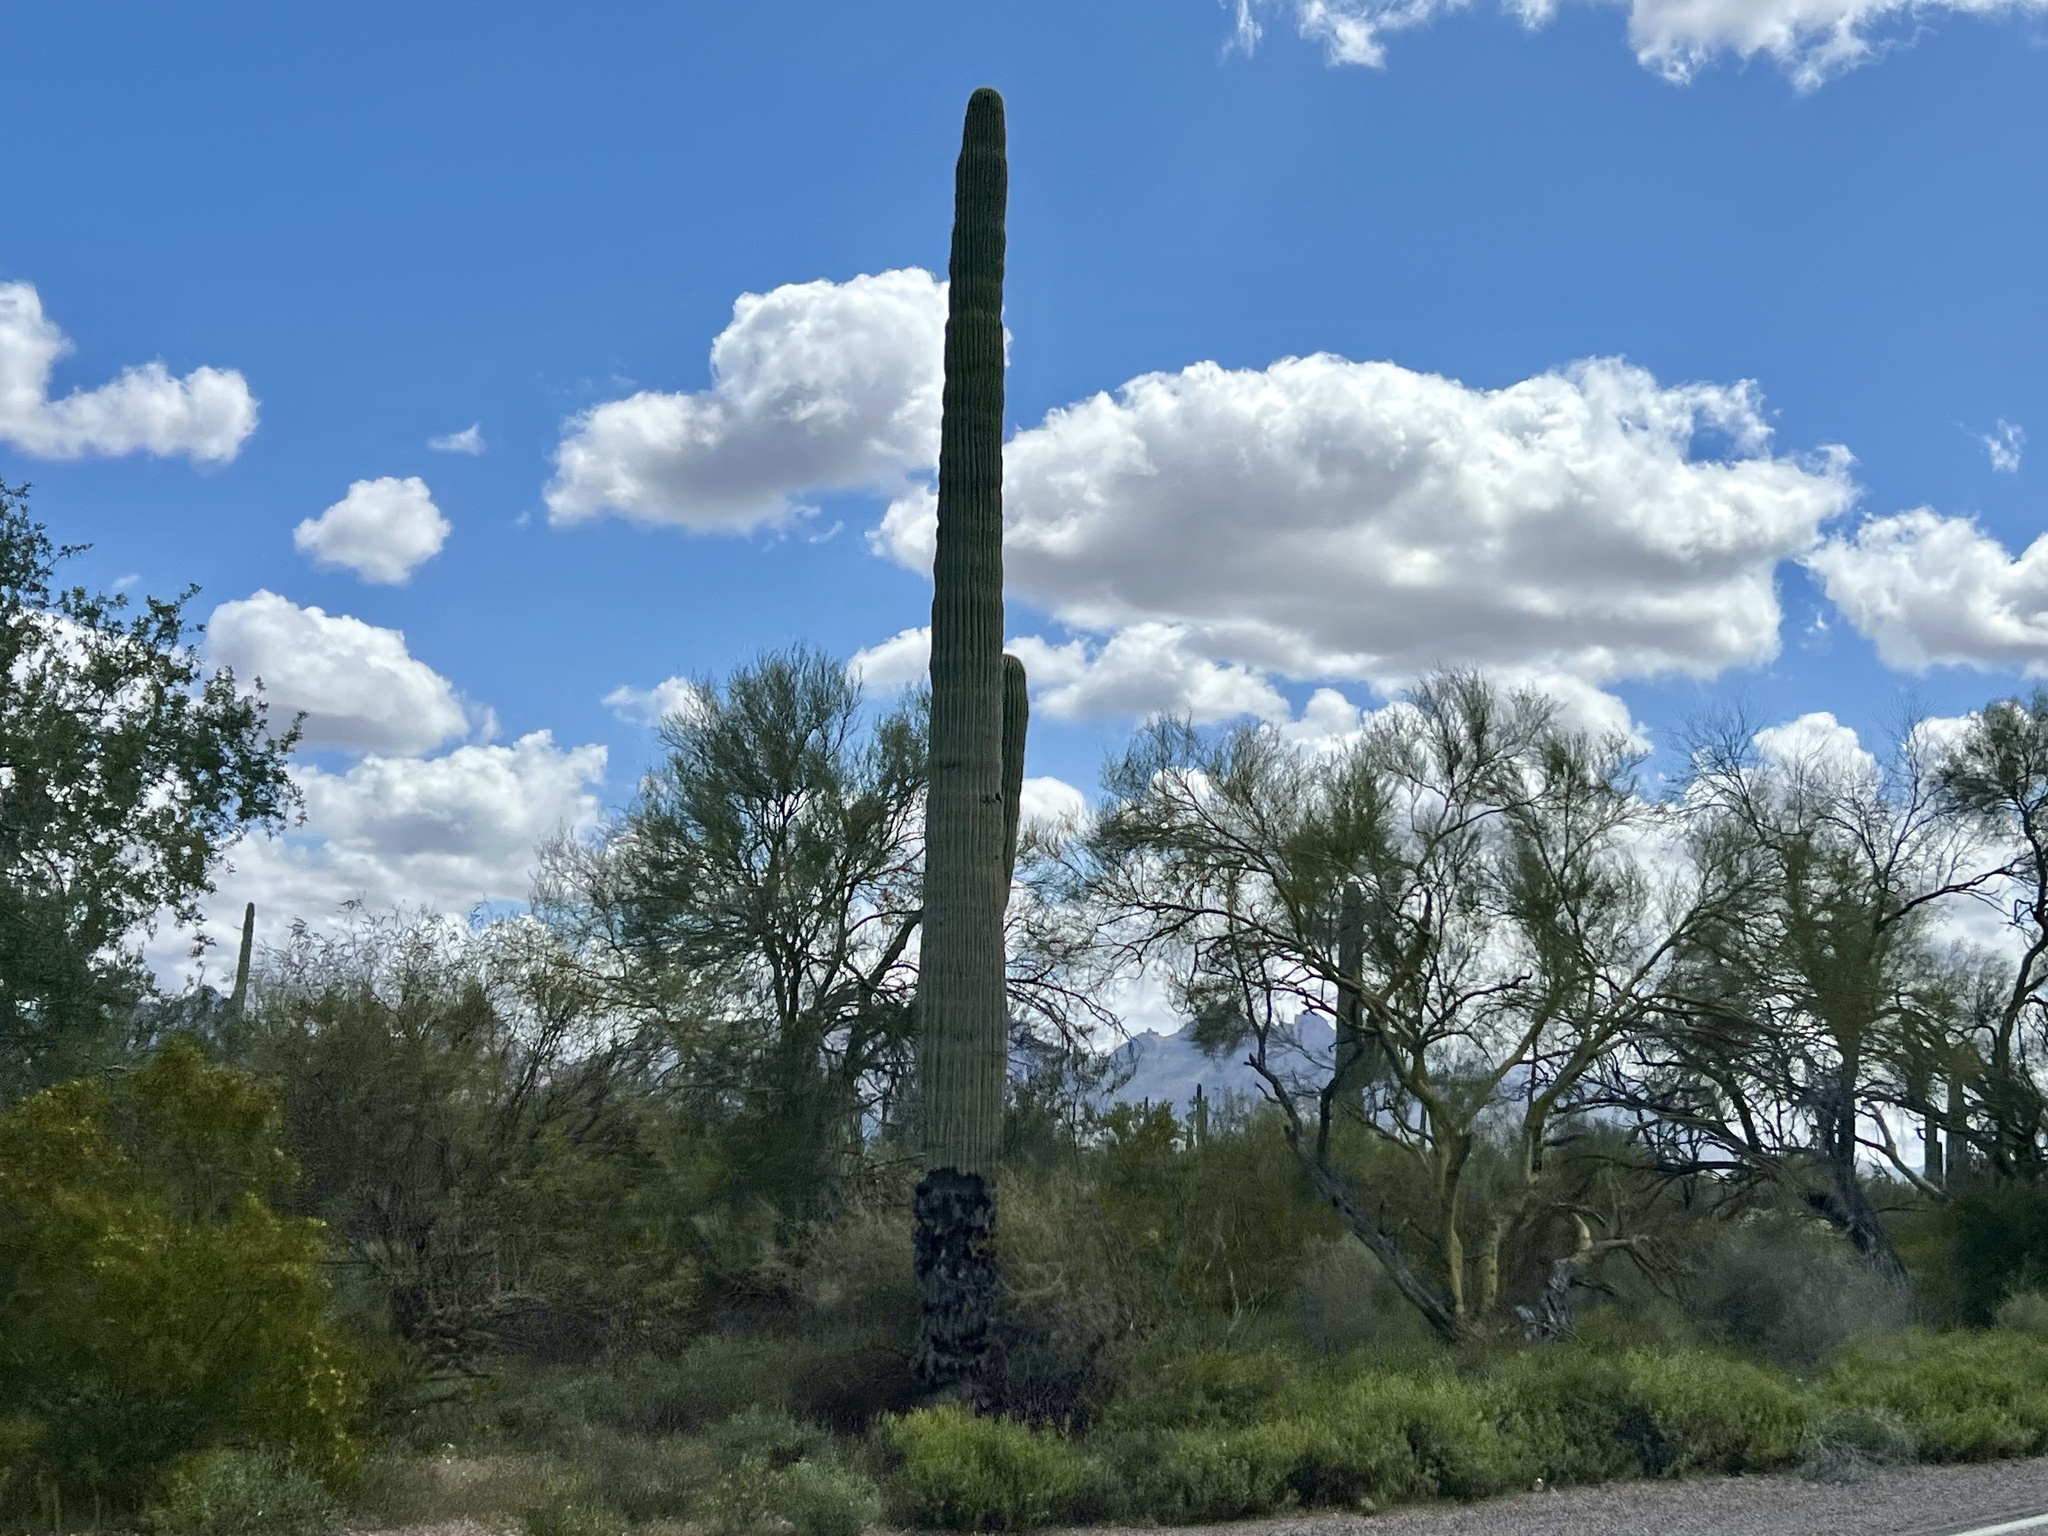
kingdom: Plantae
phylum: Tracheophyta
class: Magnoliopsida
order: Caryophyllales
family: Cactaceae
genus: Carnegiea
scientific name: Carnegiea gigantea
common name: Saguaro
